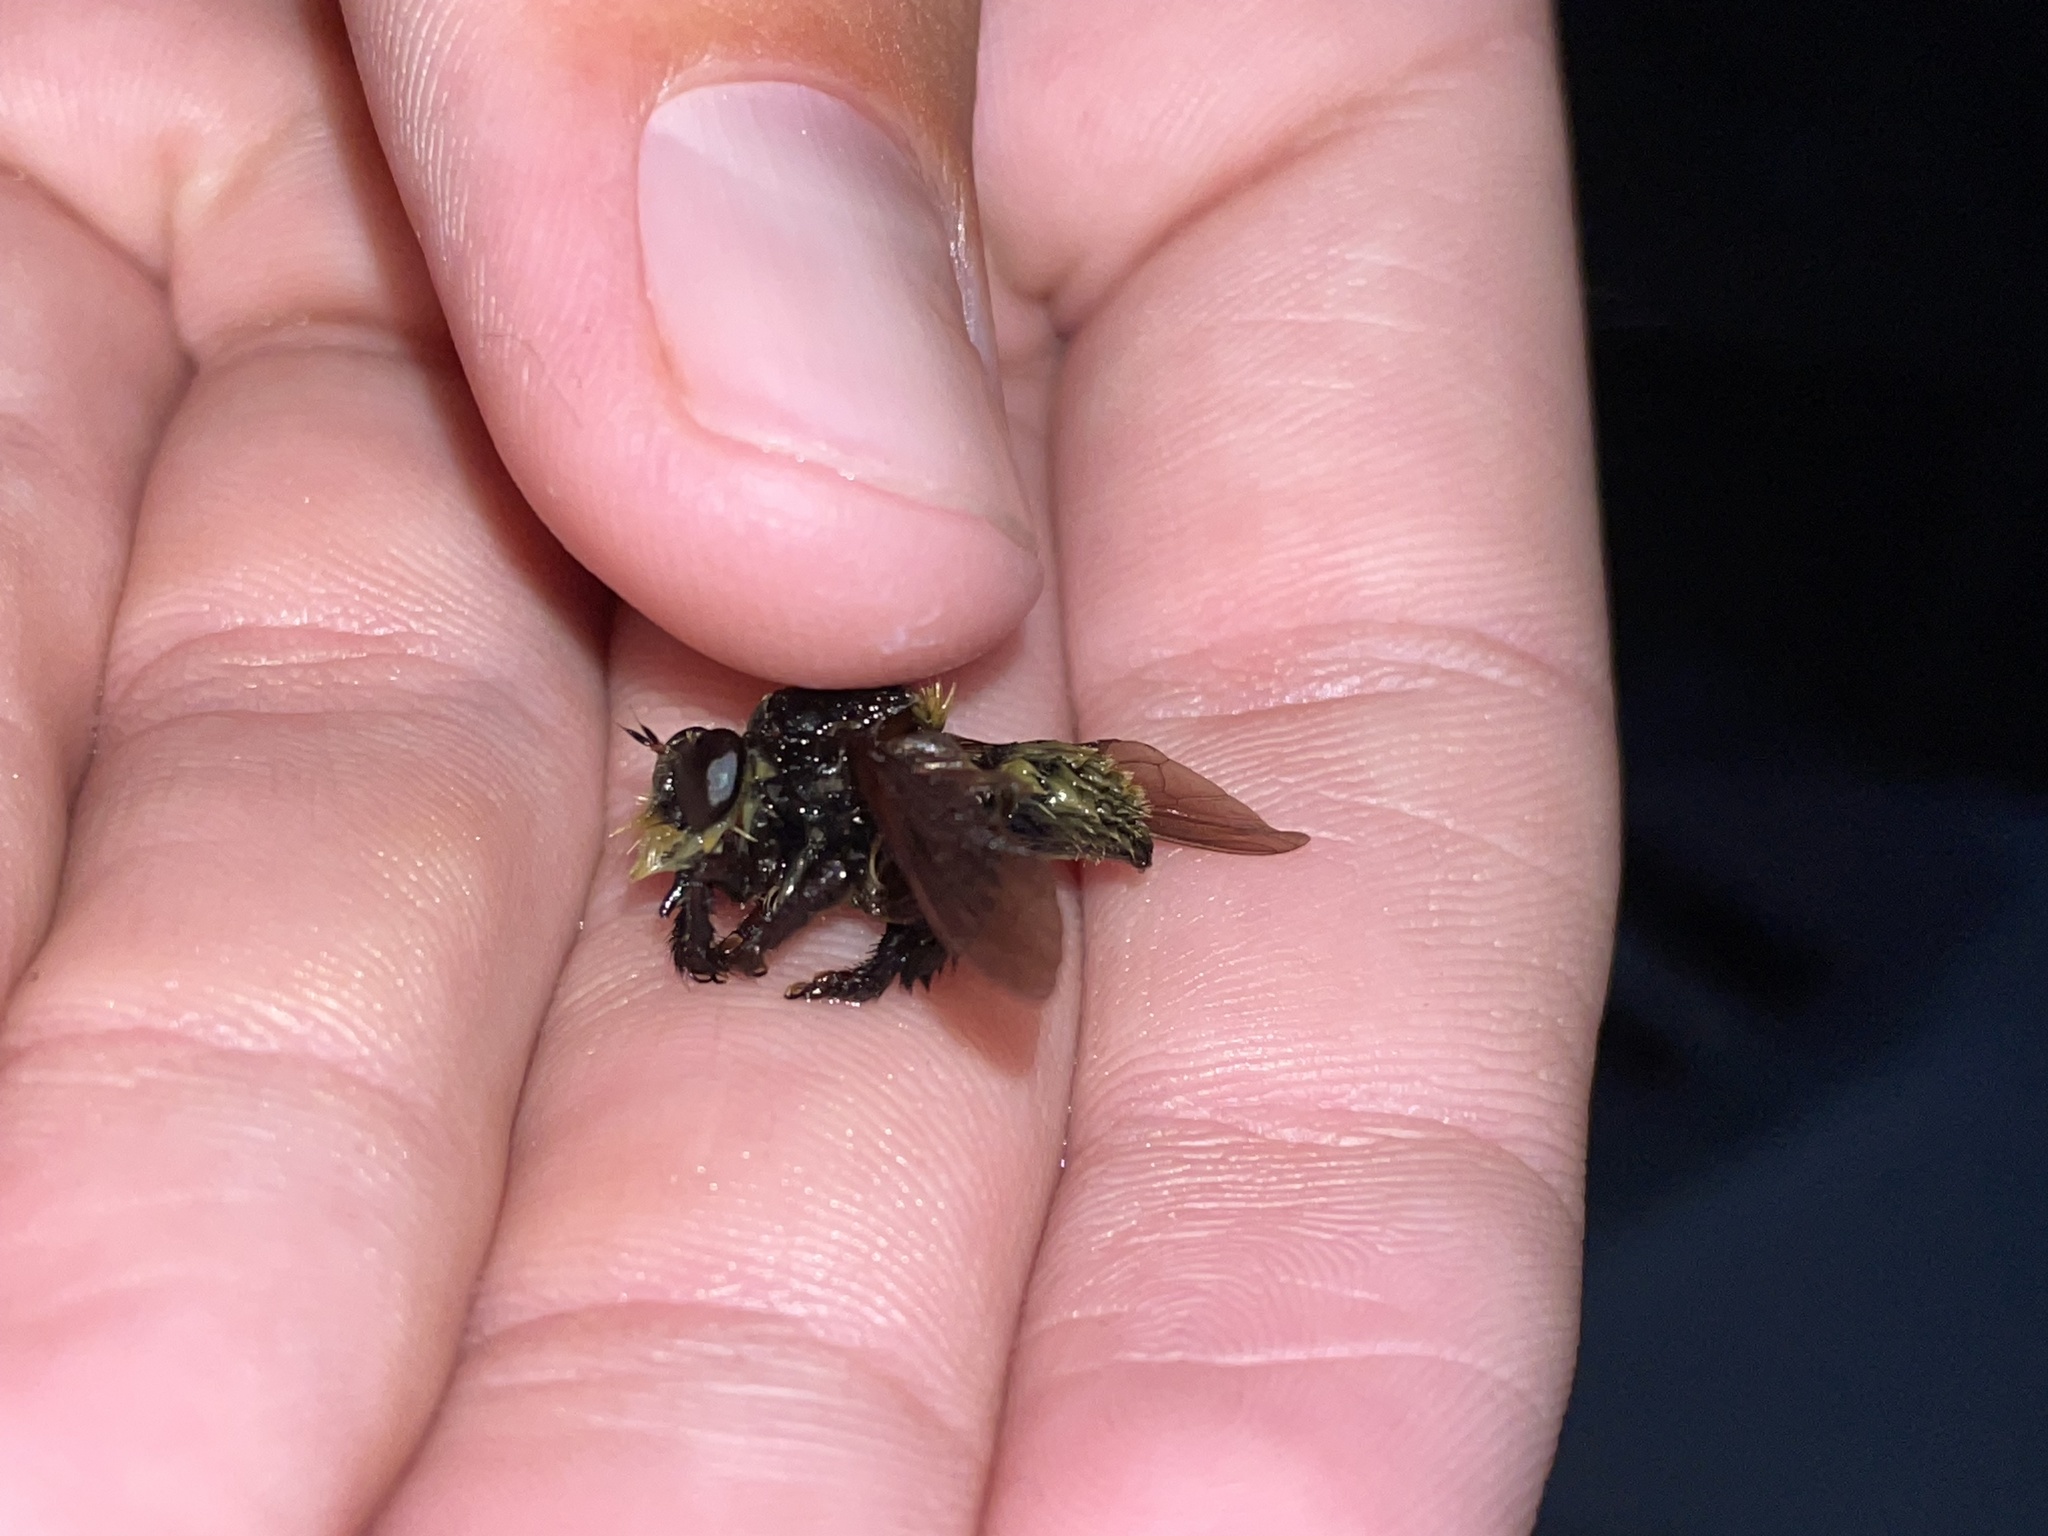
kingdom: Animalia
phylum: Arthropoda
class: Insecta
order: Diptera
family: Asilidae
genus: Mallophora
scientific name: Mallophora fautrix
